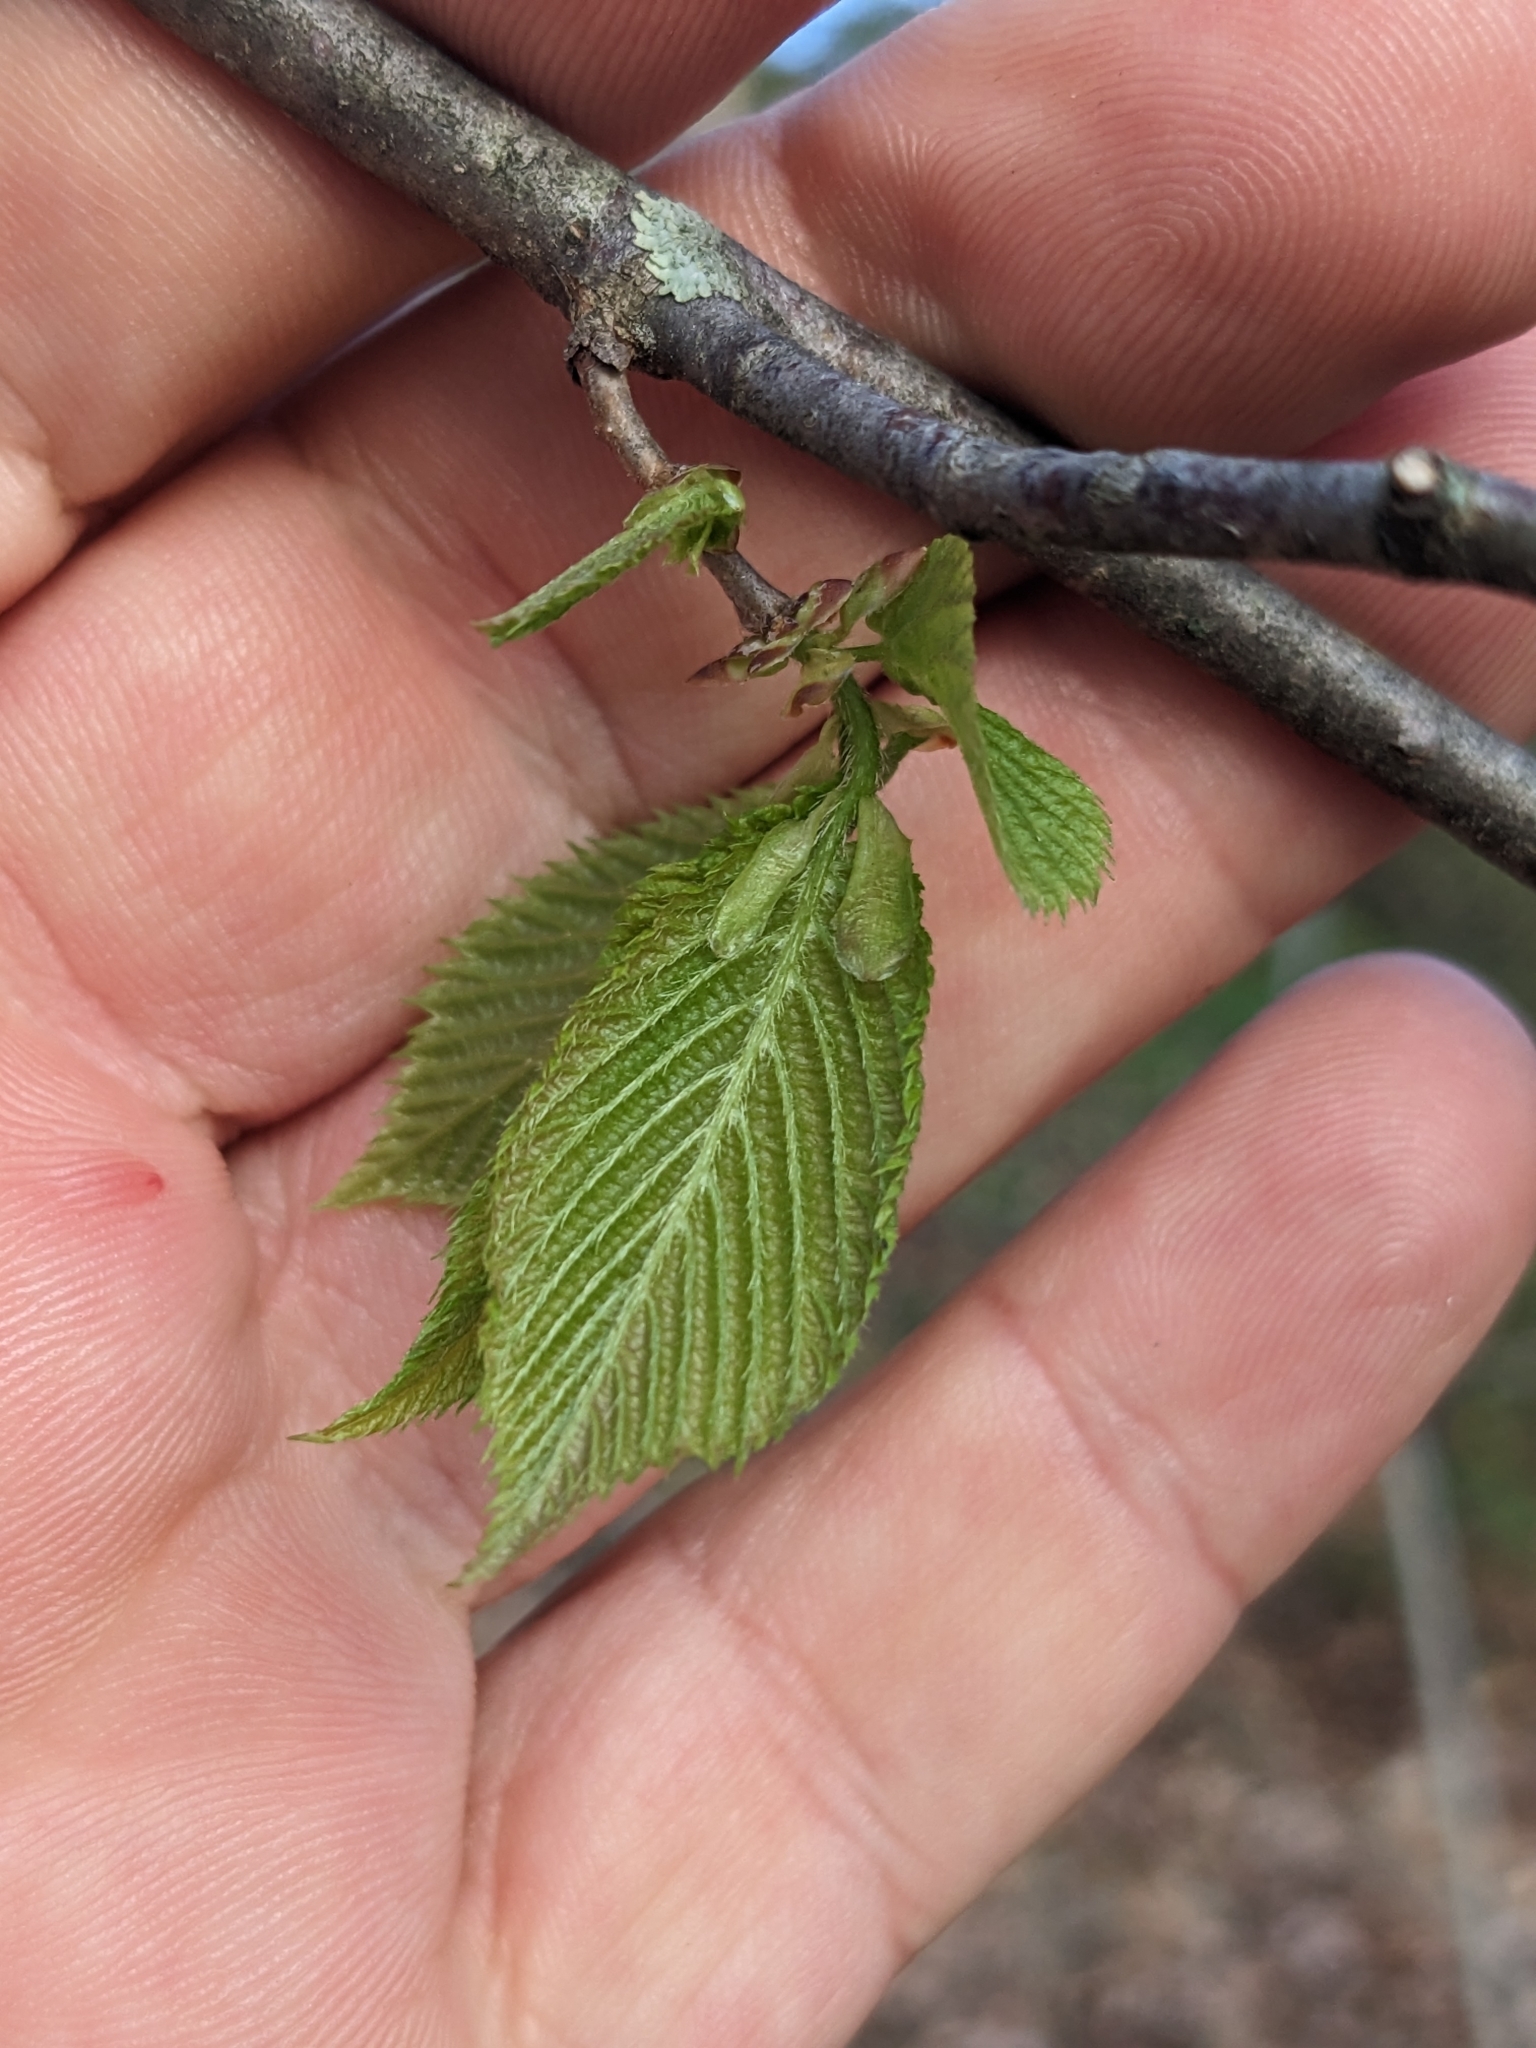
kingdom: Plantae
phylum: Tracheophyta
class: Magnoliopsida
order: Fagales
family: Betulaceae
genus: Ostrya
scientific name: Ostrya virginiana
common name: Ironwood
